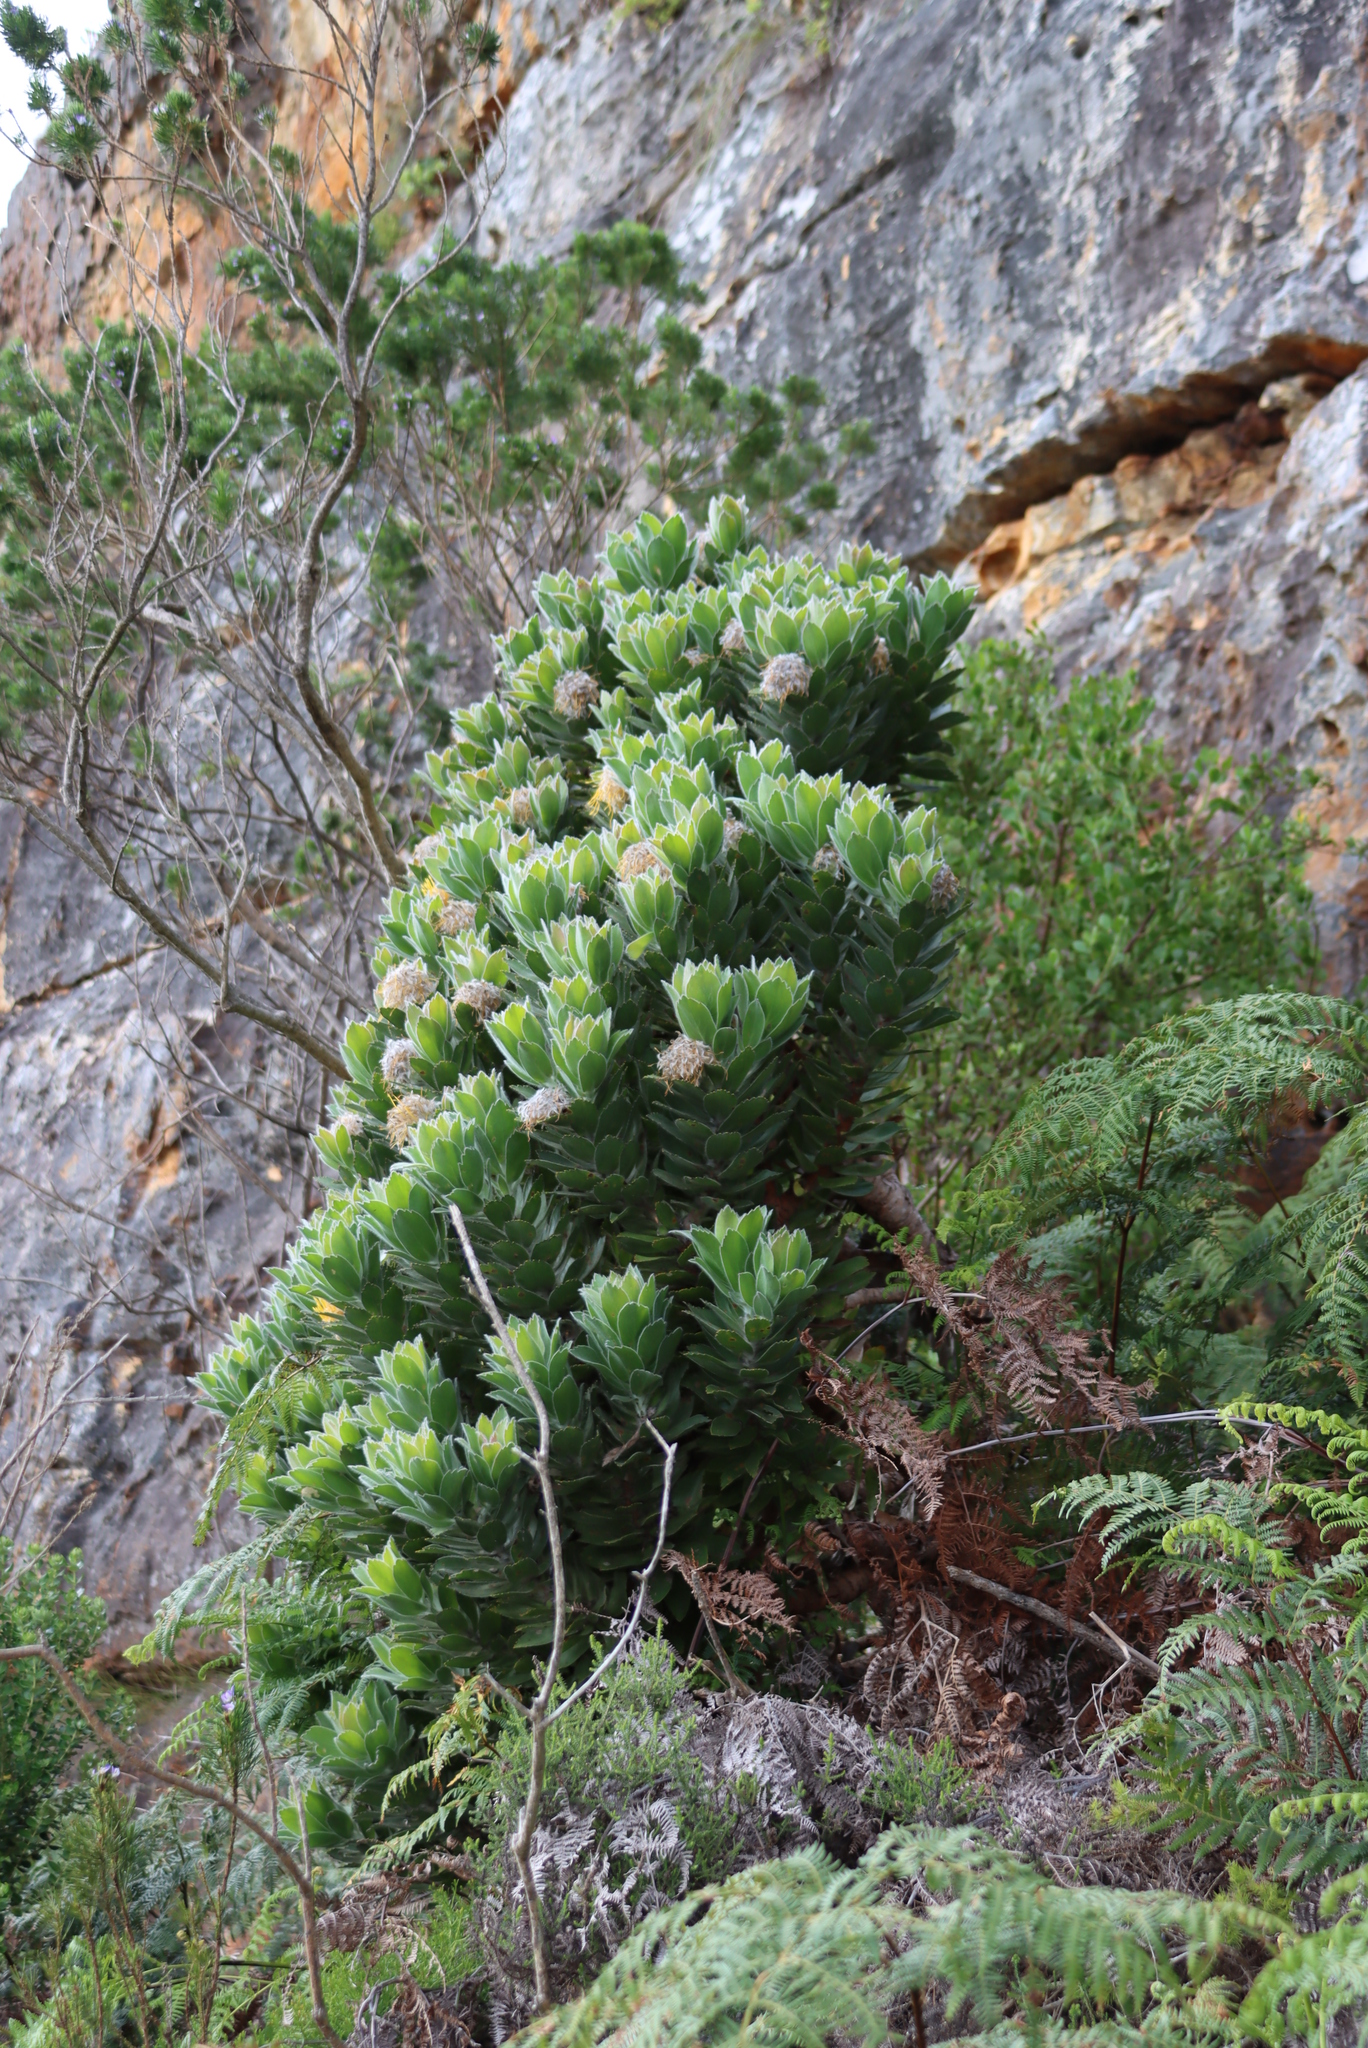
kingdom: Plantae
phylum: Tracheophyta
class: Magnoliopsida
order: Proteales
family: Proteaceae
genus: Leucospermum
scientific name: Leucospermum conocarpodendron
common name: Tree pincushion
